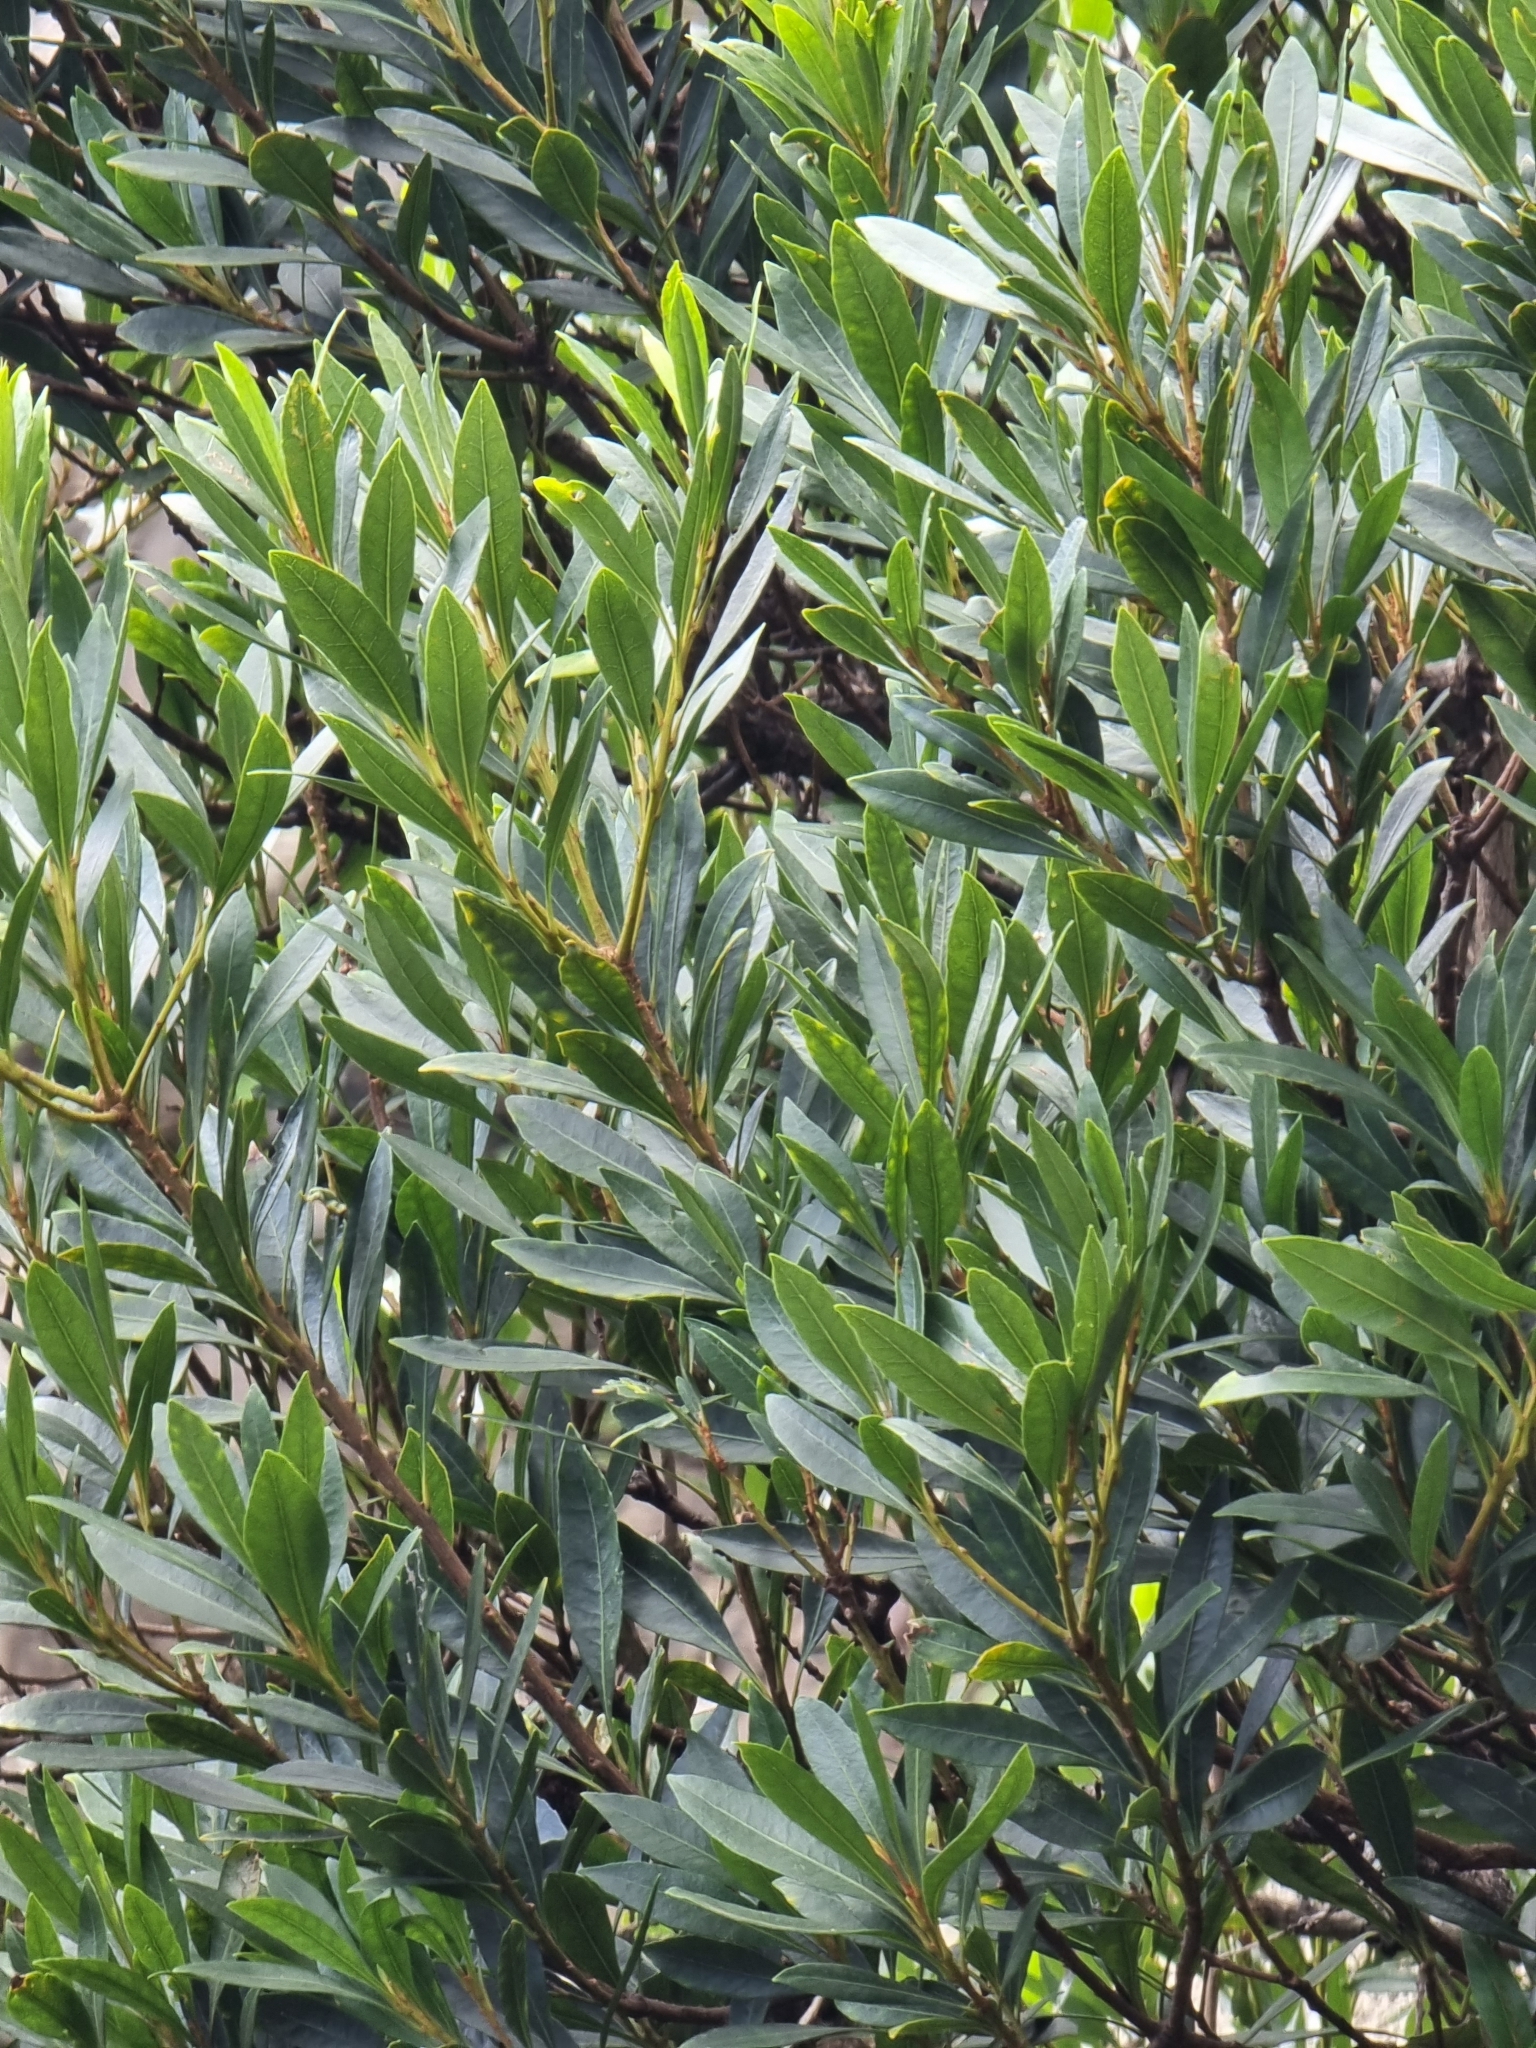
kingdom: Plantae
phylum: Tracheophyta
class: Magnoliopsida
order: Fagales
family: Myricaceae
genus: Morella
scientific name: Morella faya
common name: Firetree
